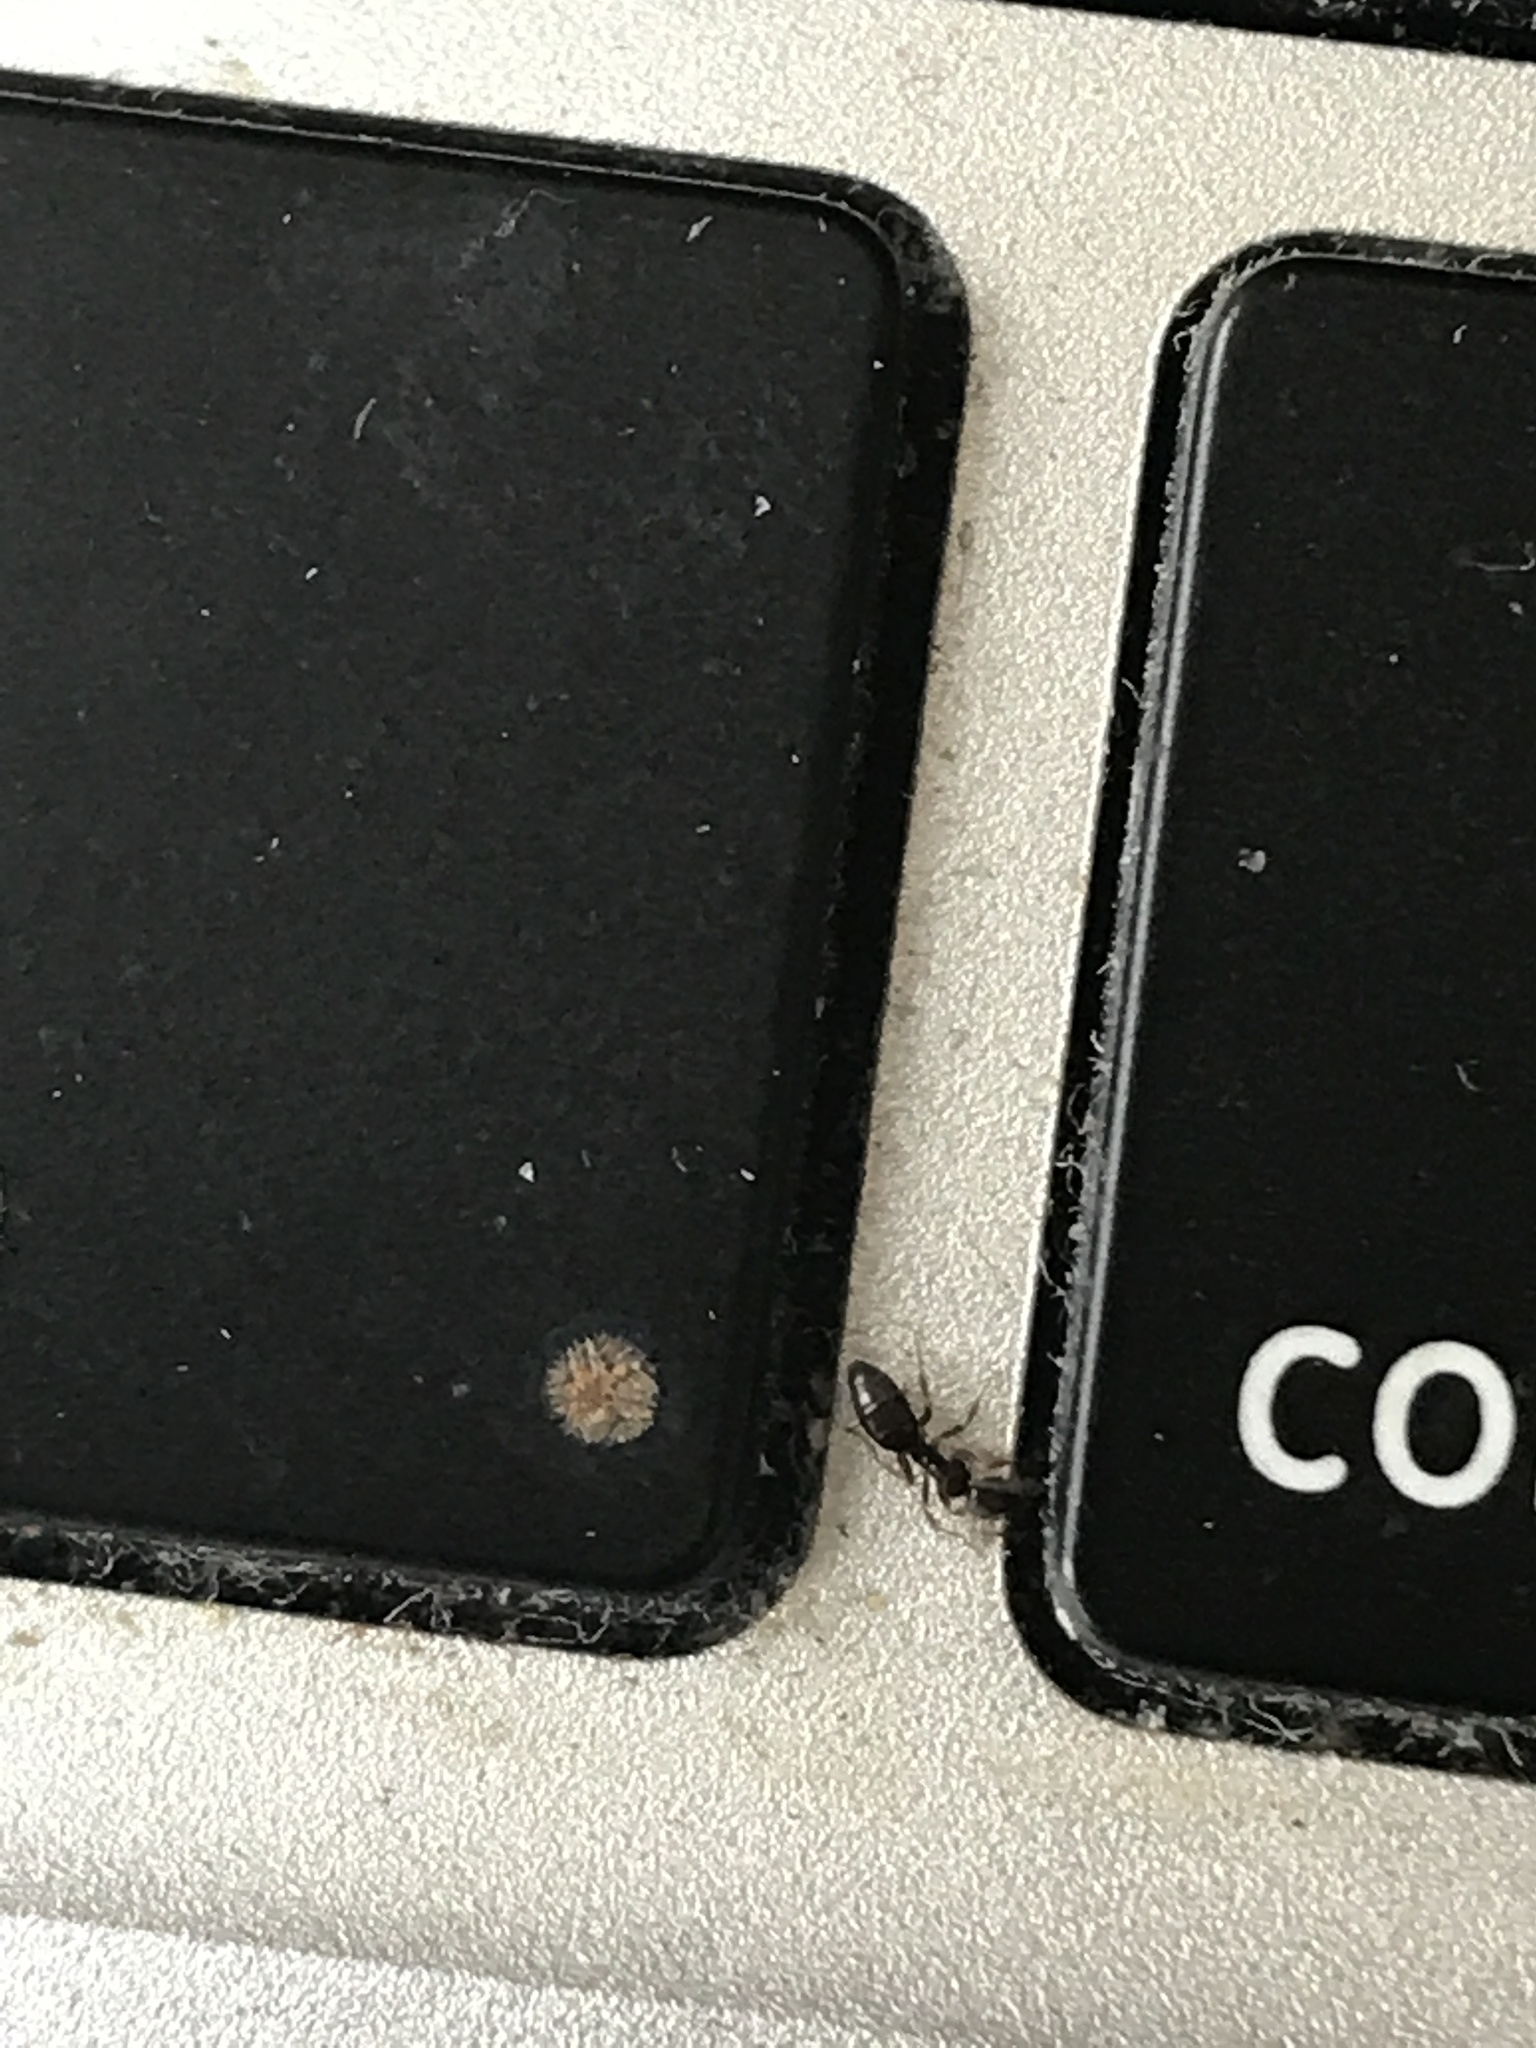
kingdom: Animalia
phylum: Arthropoda
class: Insecta
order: Hymenoptera
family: Formicidae
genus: Tapinoma
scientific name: Tapinoma sessile
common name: Odorous house ant
